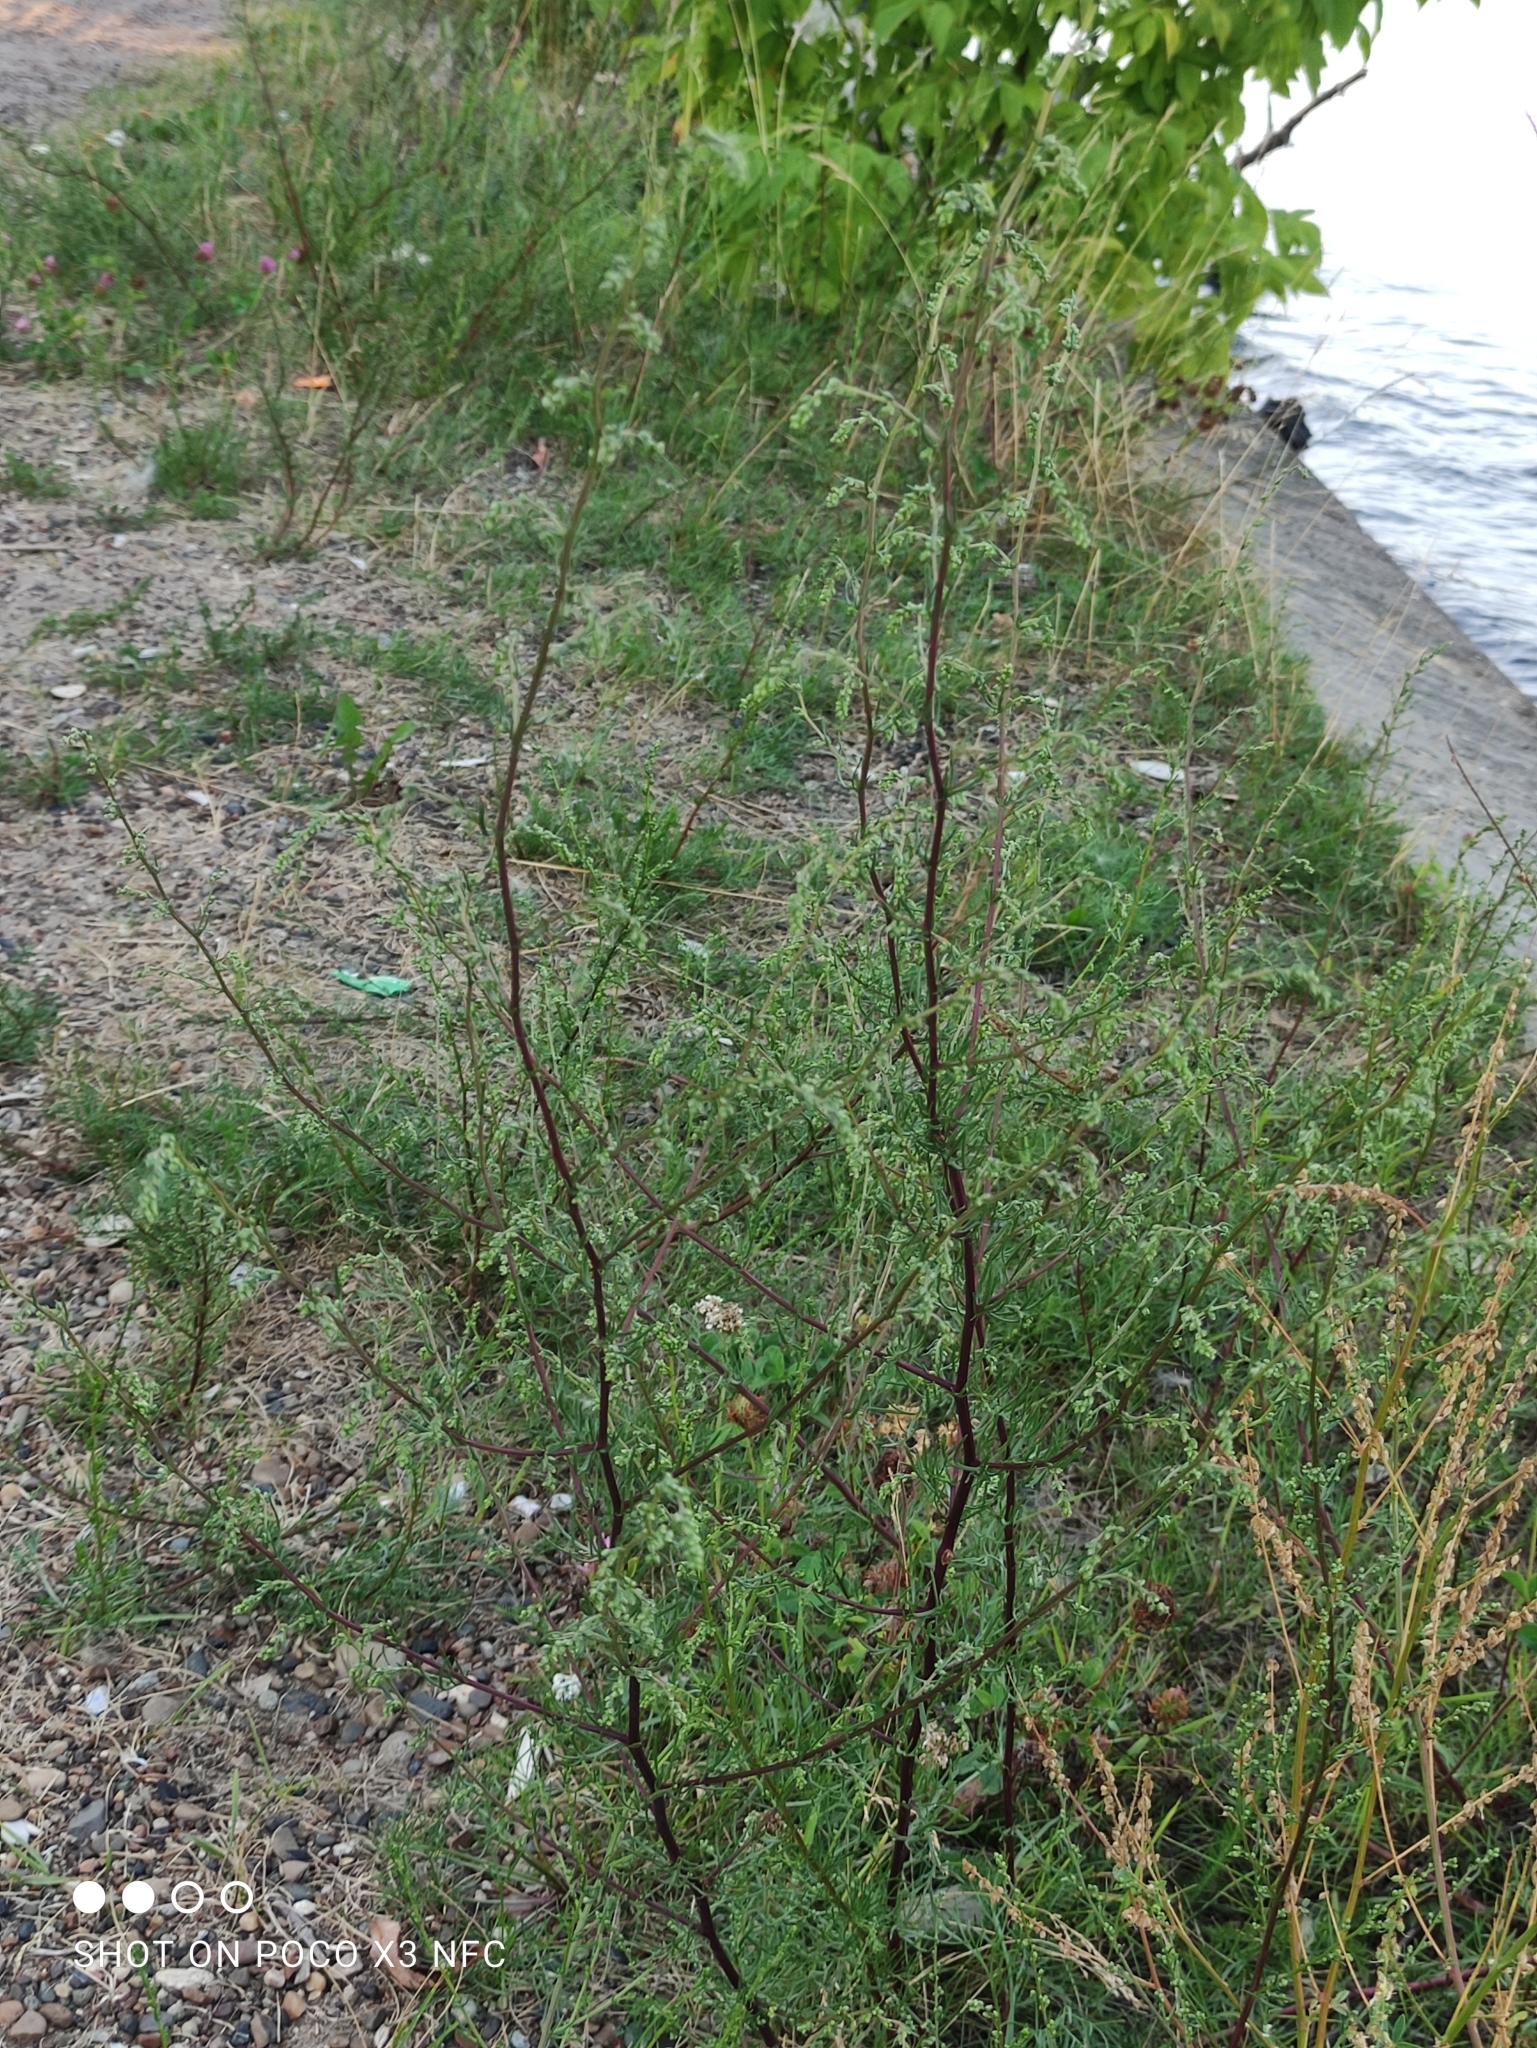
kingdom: Plantae
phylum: Tracheophyta
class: Magnoliopsida
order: Asterales
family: Asteraceae
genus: Artemisia
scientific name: Artemisia campestris
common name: Field wormwood
